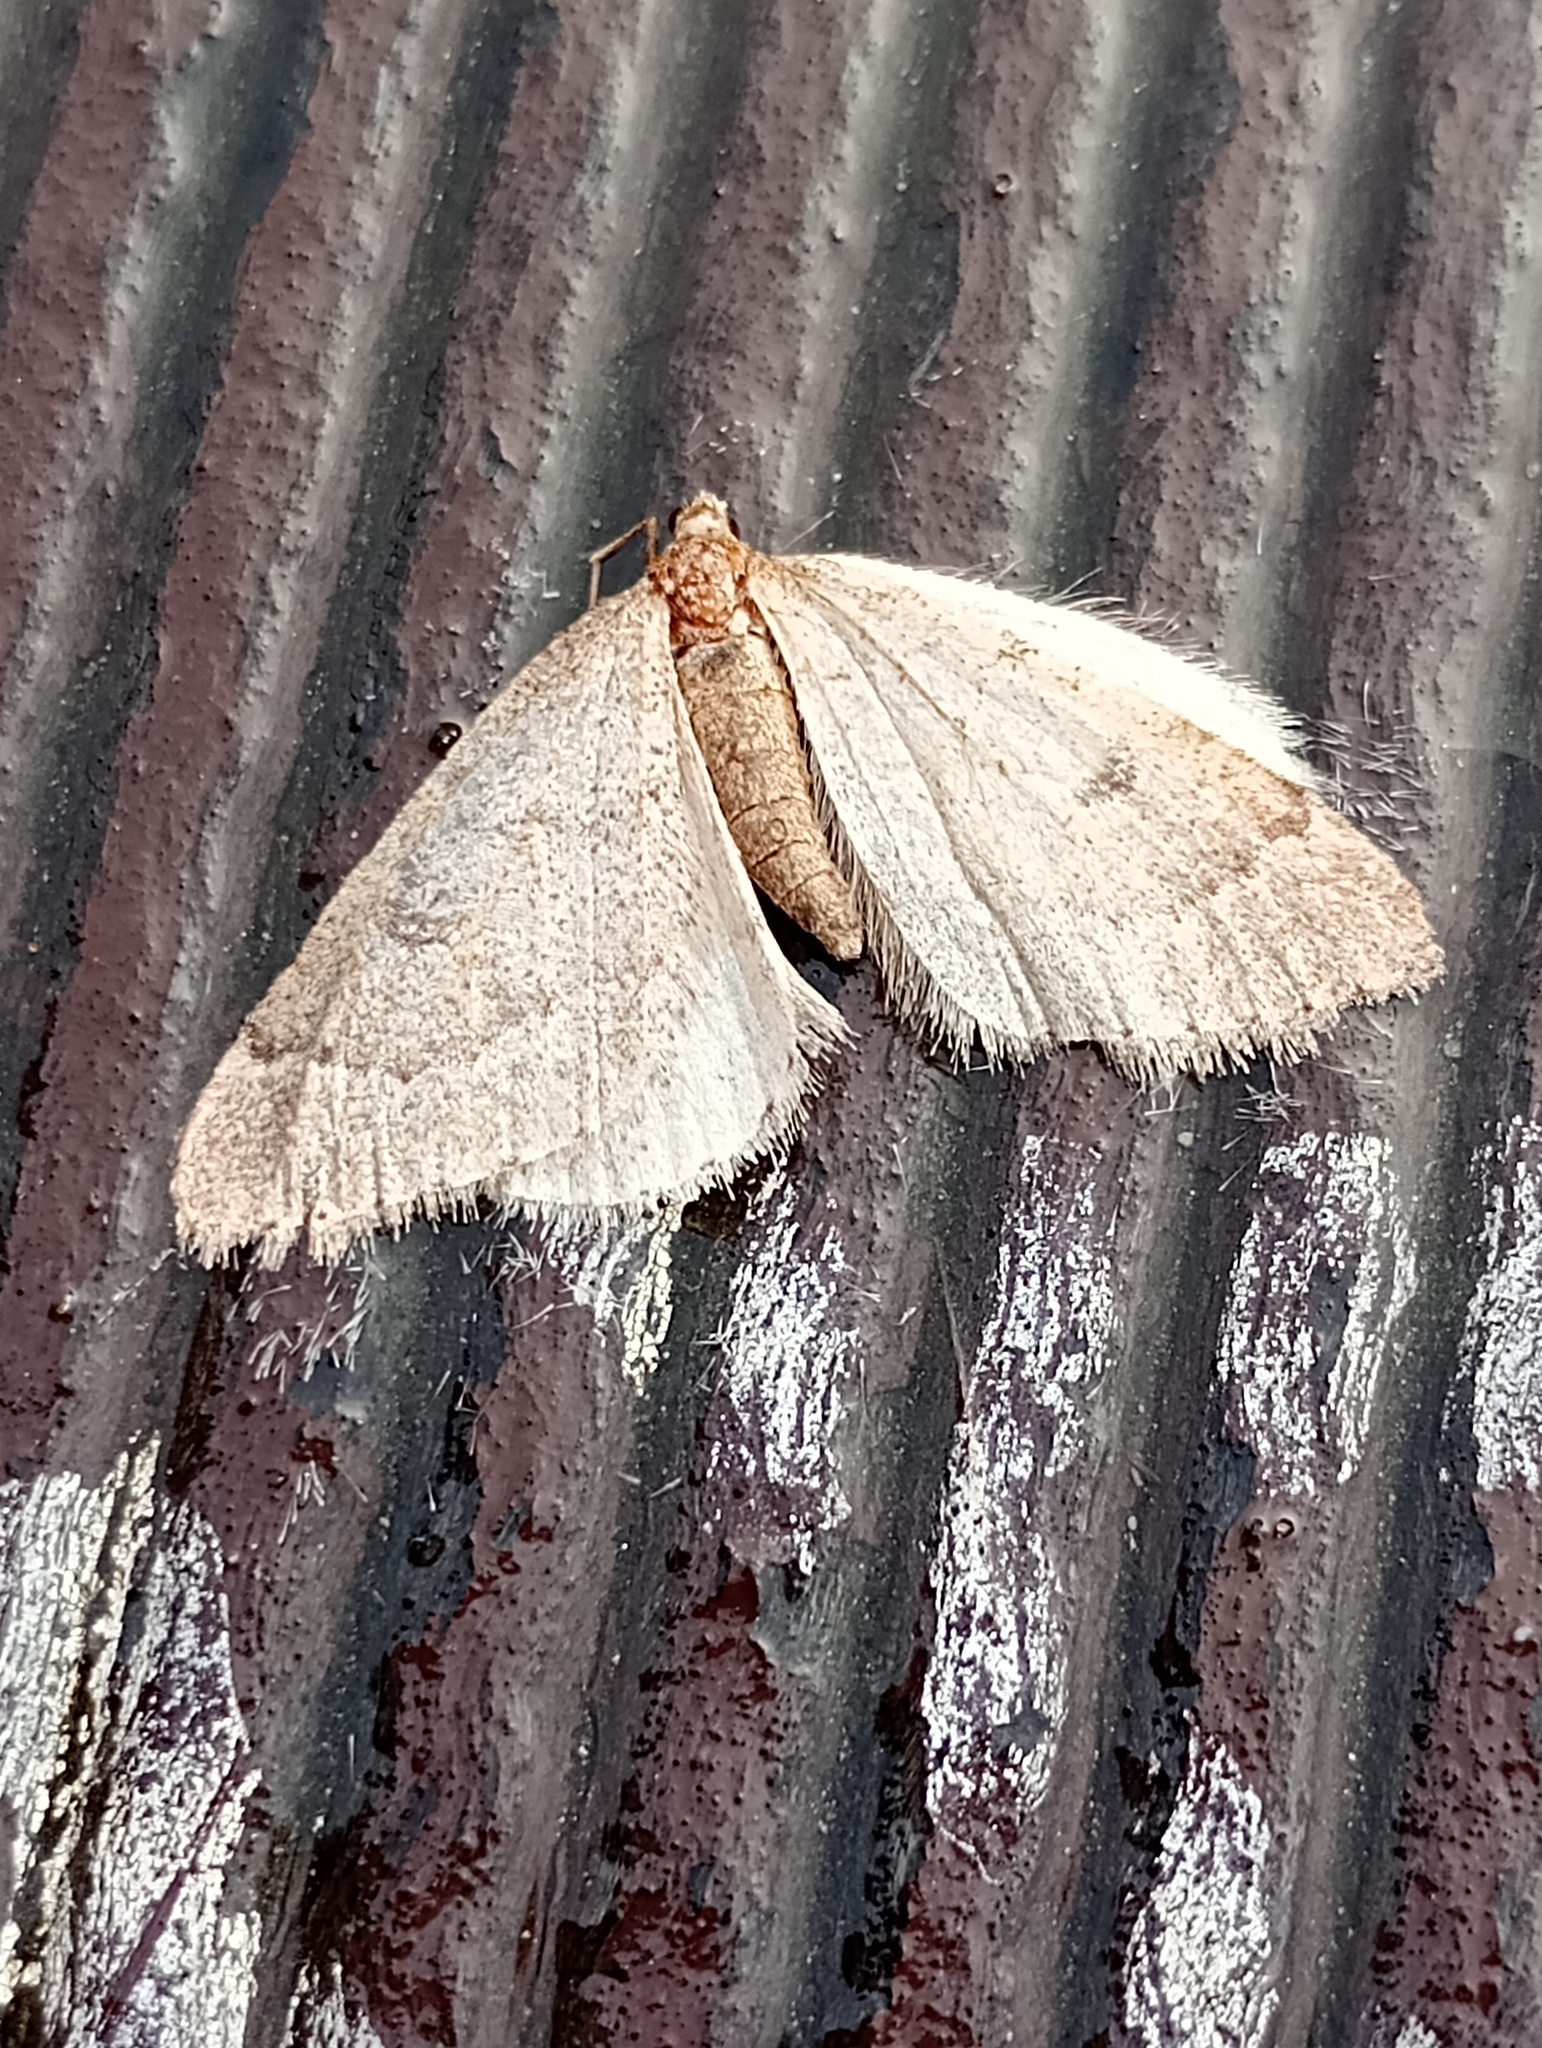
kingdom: Animalia
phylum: Arthropoda
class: Insecta
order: Lepidoptera
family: Geometridae
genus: Theria
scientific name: Theria rupicapraria
